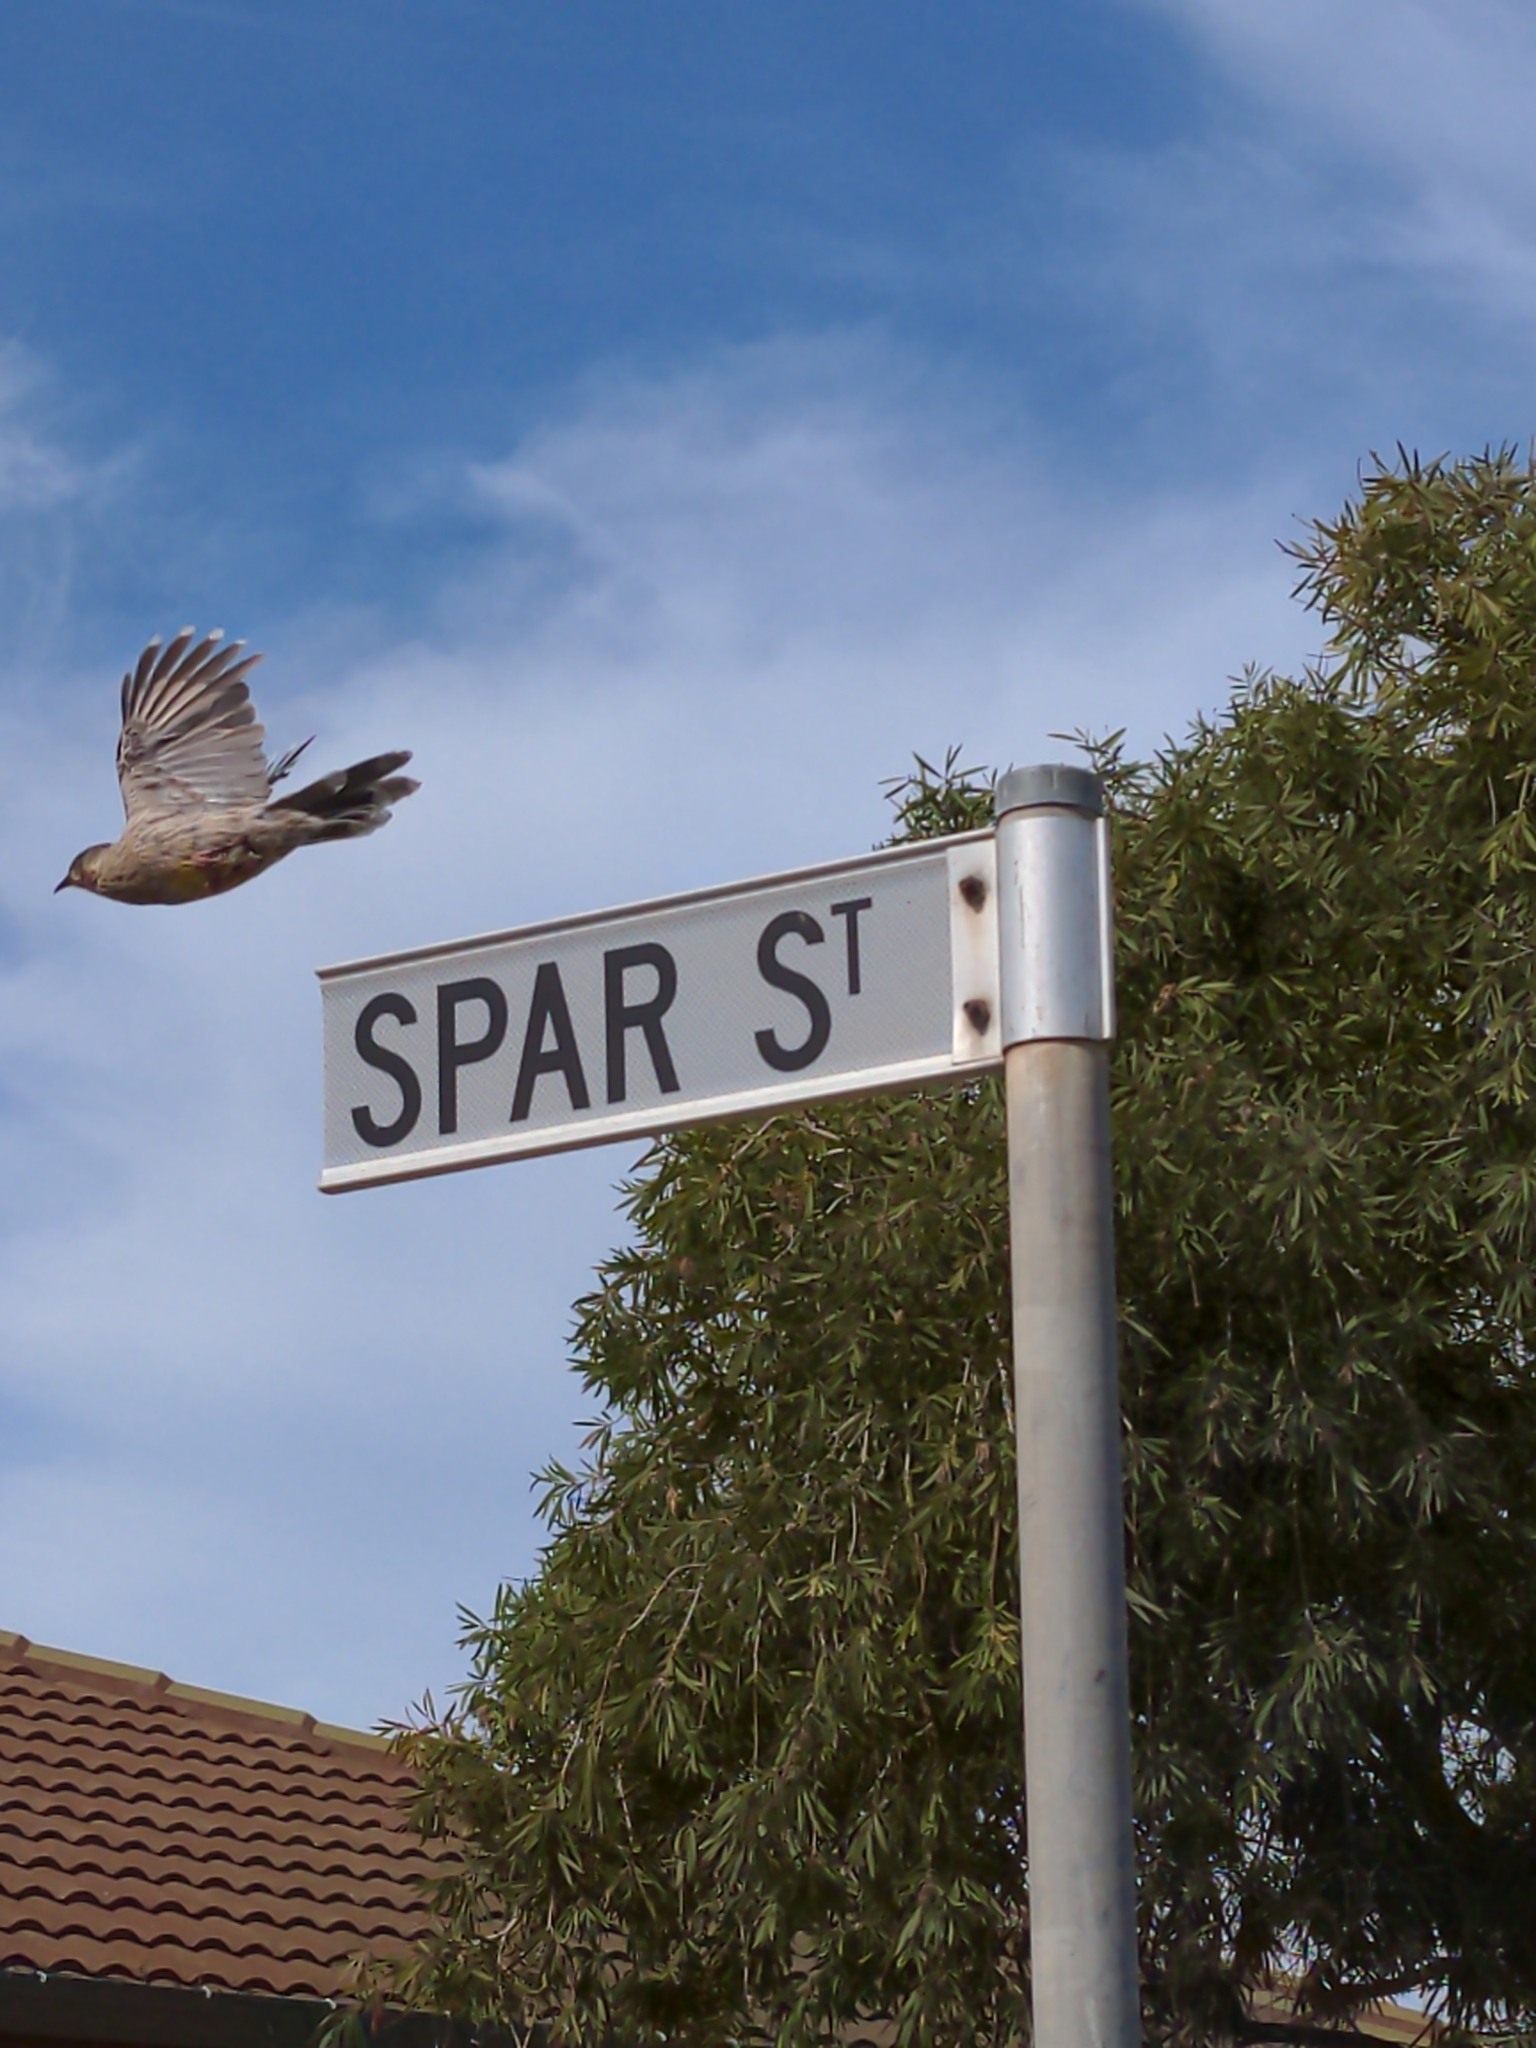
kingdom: Animalia
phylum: Chordata
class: Aves
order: Passeriformes
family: Meliphagidae
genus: Anthochaera
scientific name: Anthochaera carunculata
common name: Red wattlebird
